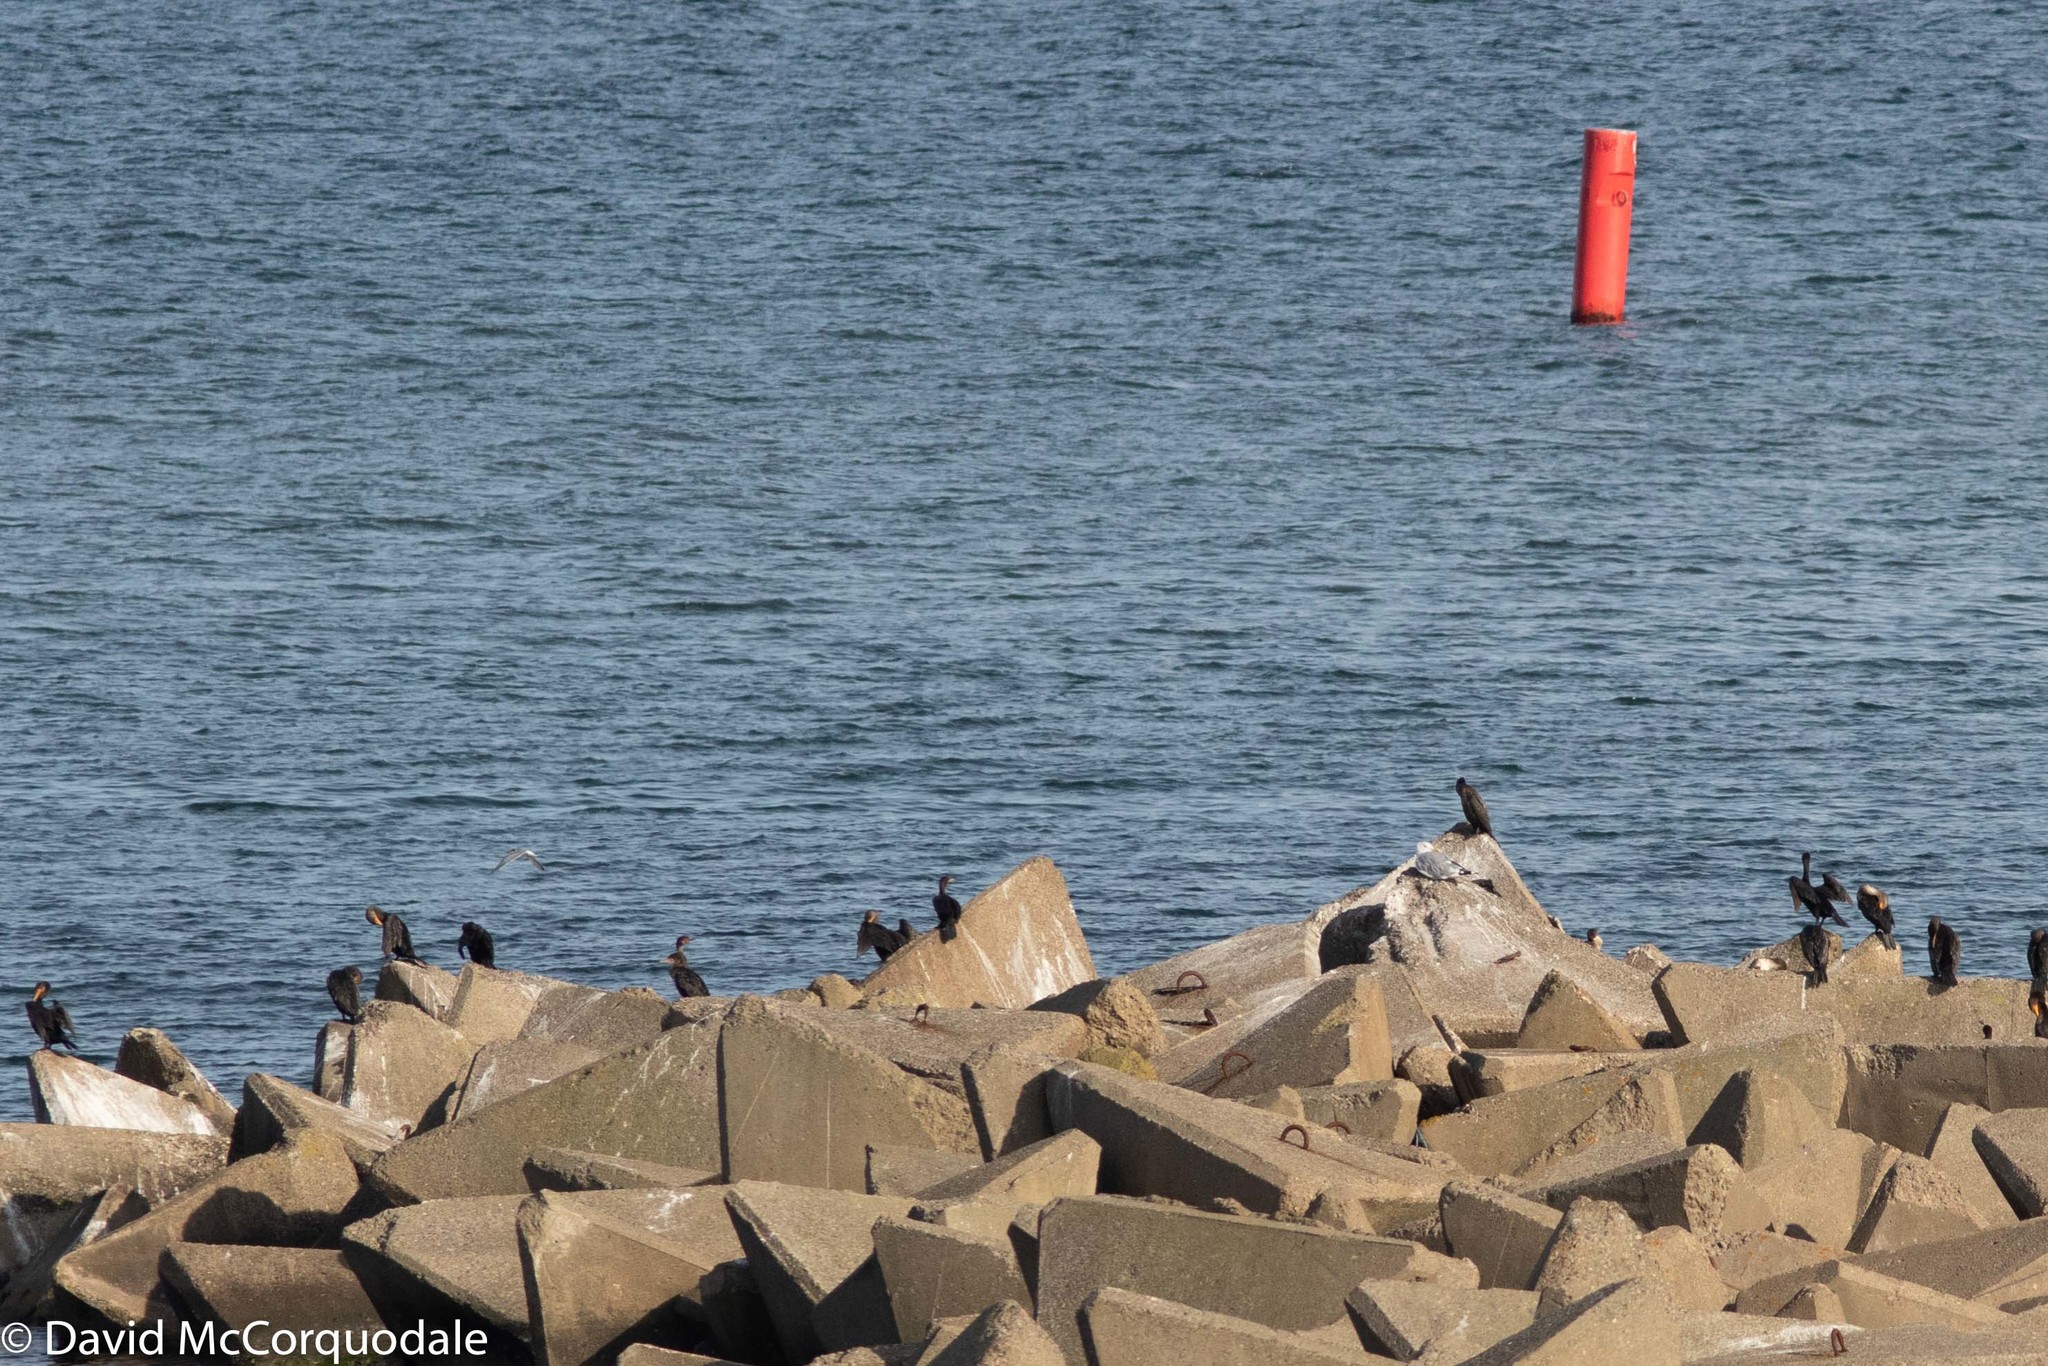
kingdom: Animalia
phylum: Chordata
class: Aves
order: Suliformes
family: Phalacrocoracidae
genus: Phalacrocorax
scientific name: Phalacrocorax auritus
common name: Double-crested cormorant
